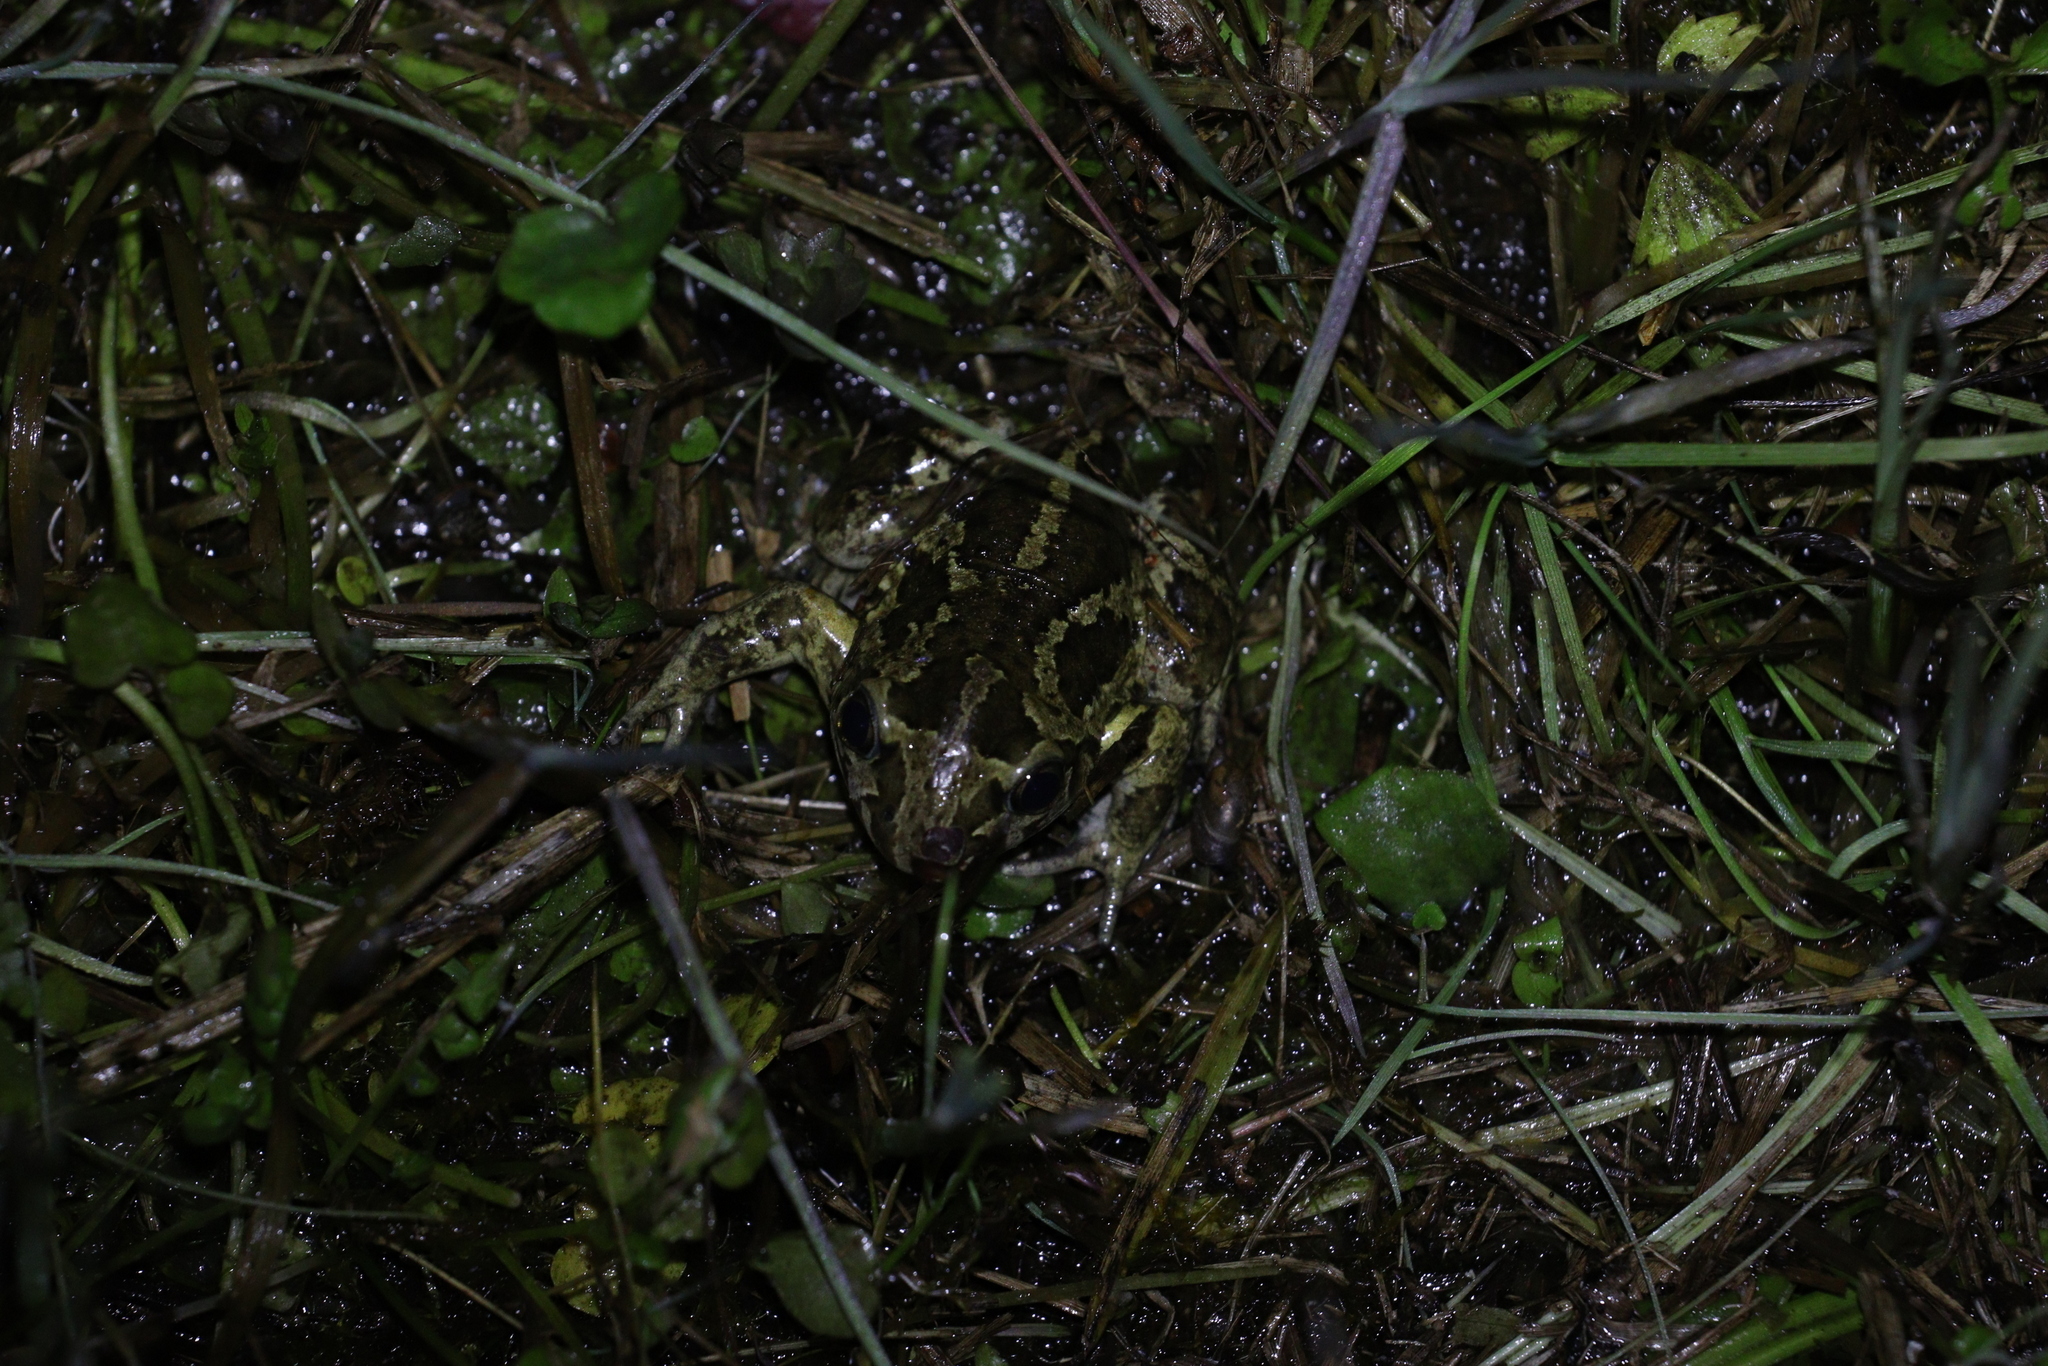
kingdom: Animalia
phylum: Chordata
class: Amphibia
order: Anura
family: Pelobatidae
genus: Pelobates
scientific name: Pelobates fuscus
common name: Common eurasian spadefoot toad
